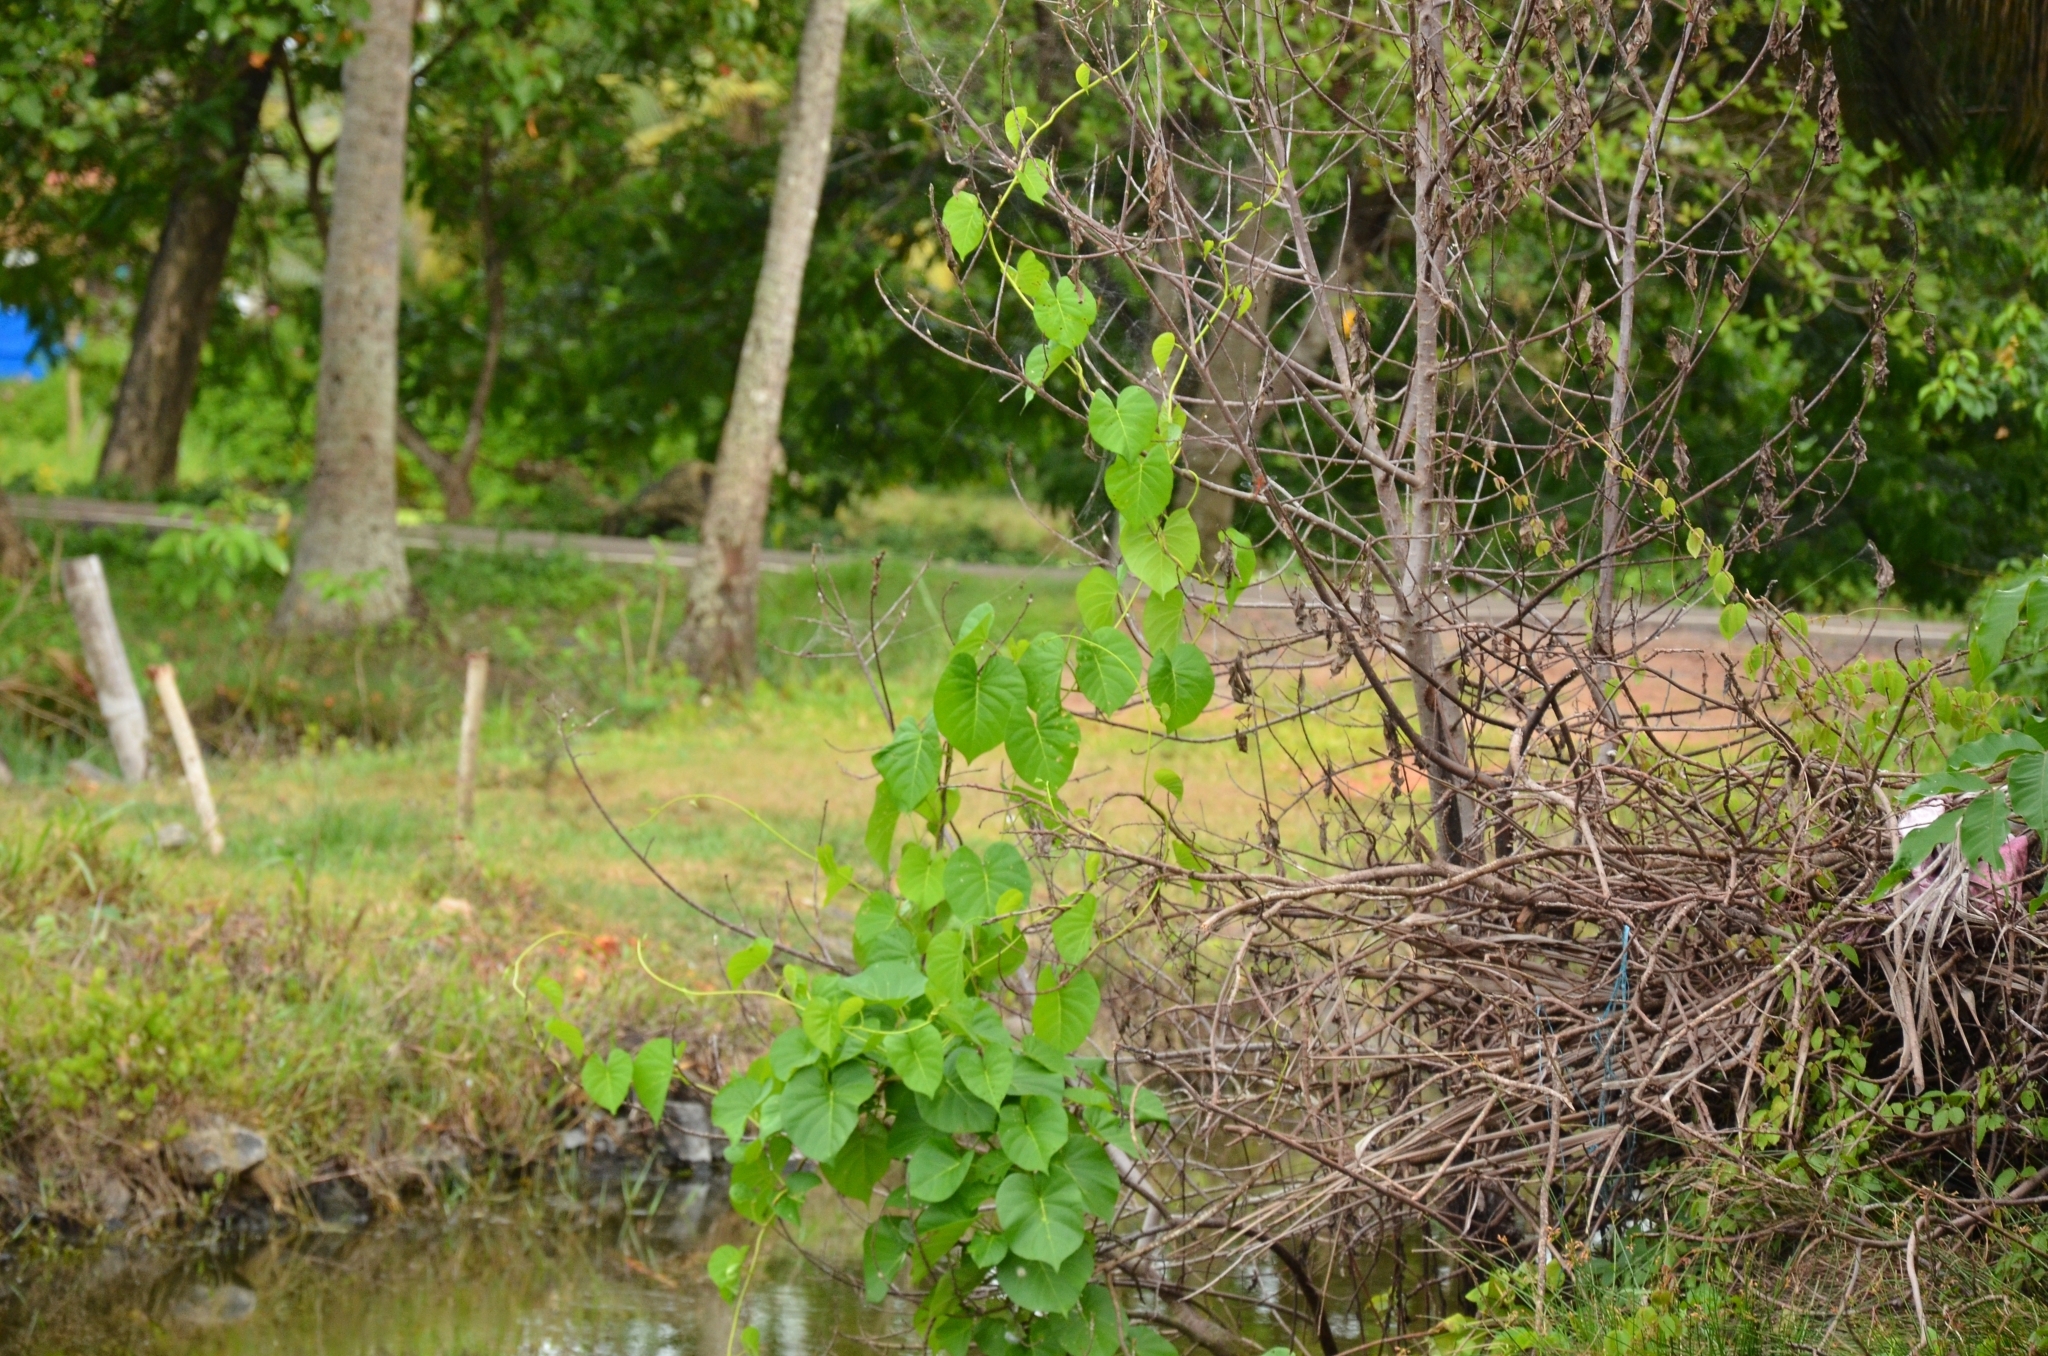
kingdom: Plantae
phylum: Tracheophyta
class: Magnoliopsida
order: Solanales
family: Convolvulaceae
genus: Ipomoea
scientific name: Ipomoea violacea
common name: Beach moonflower
